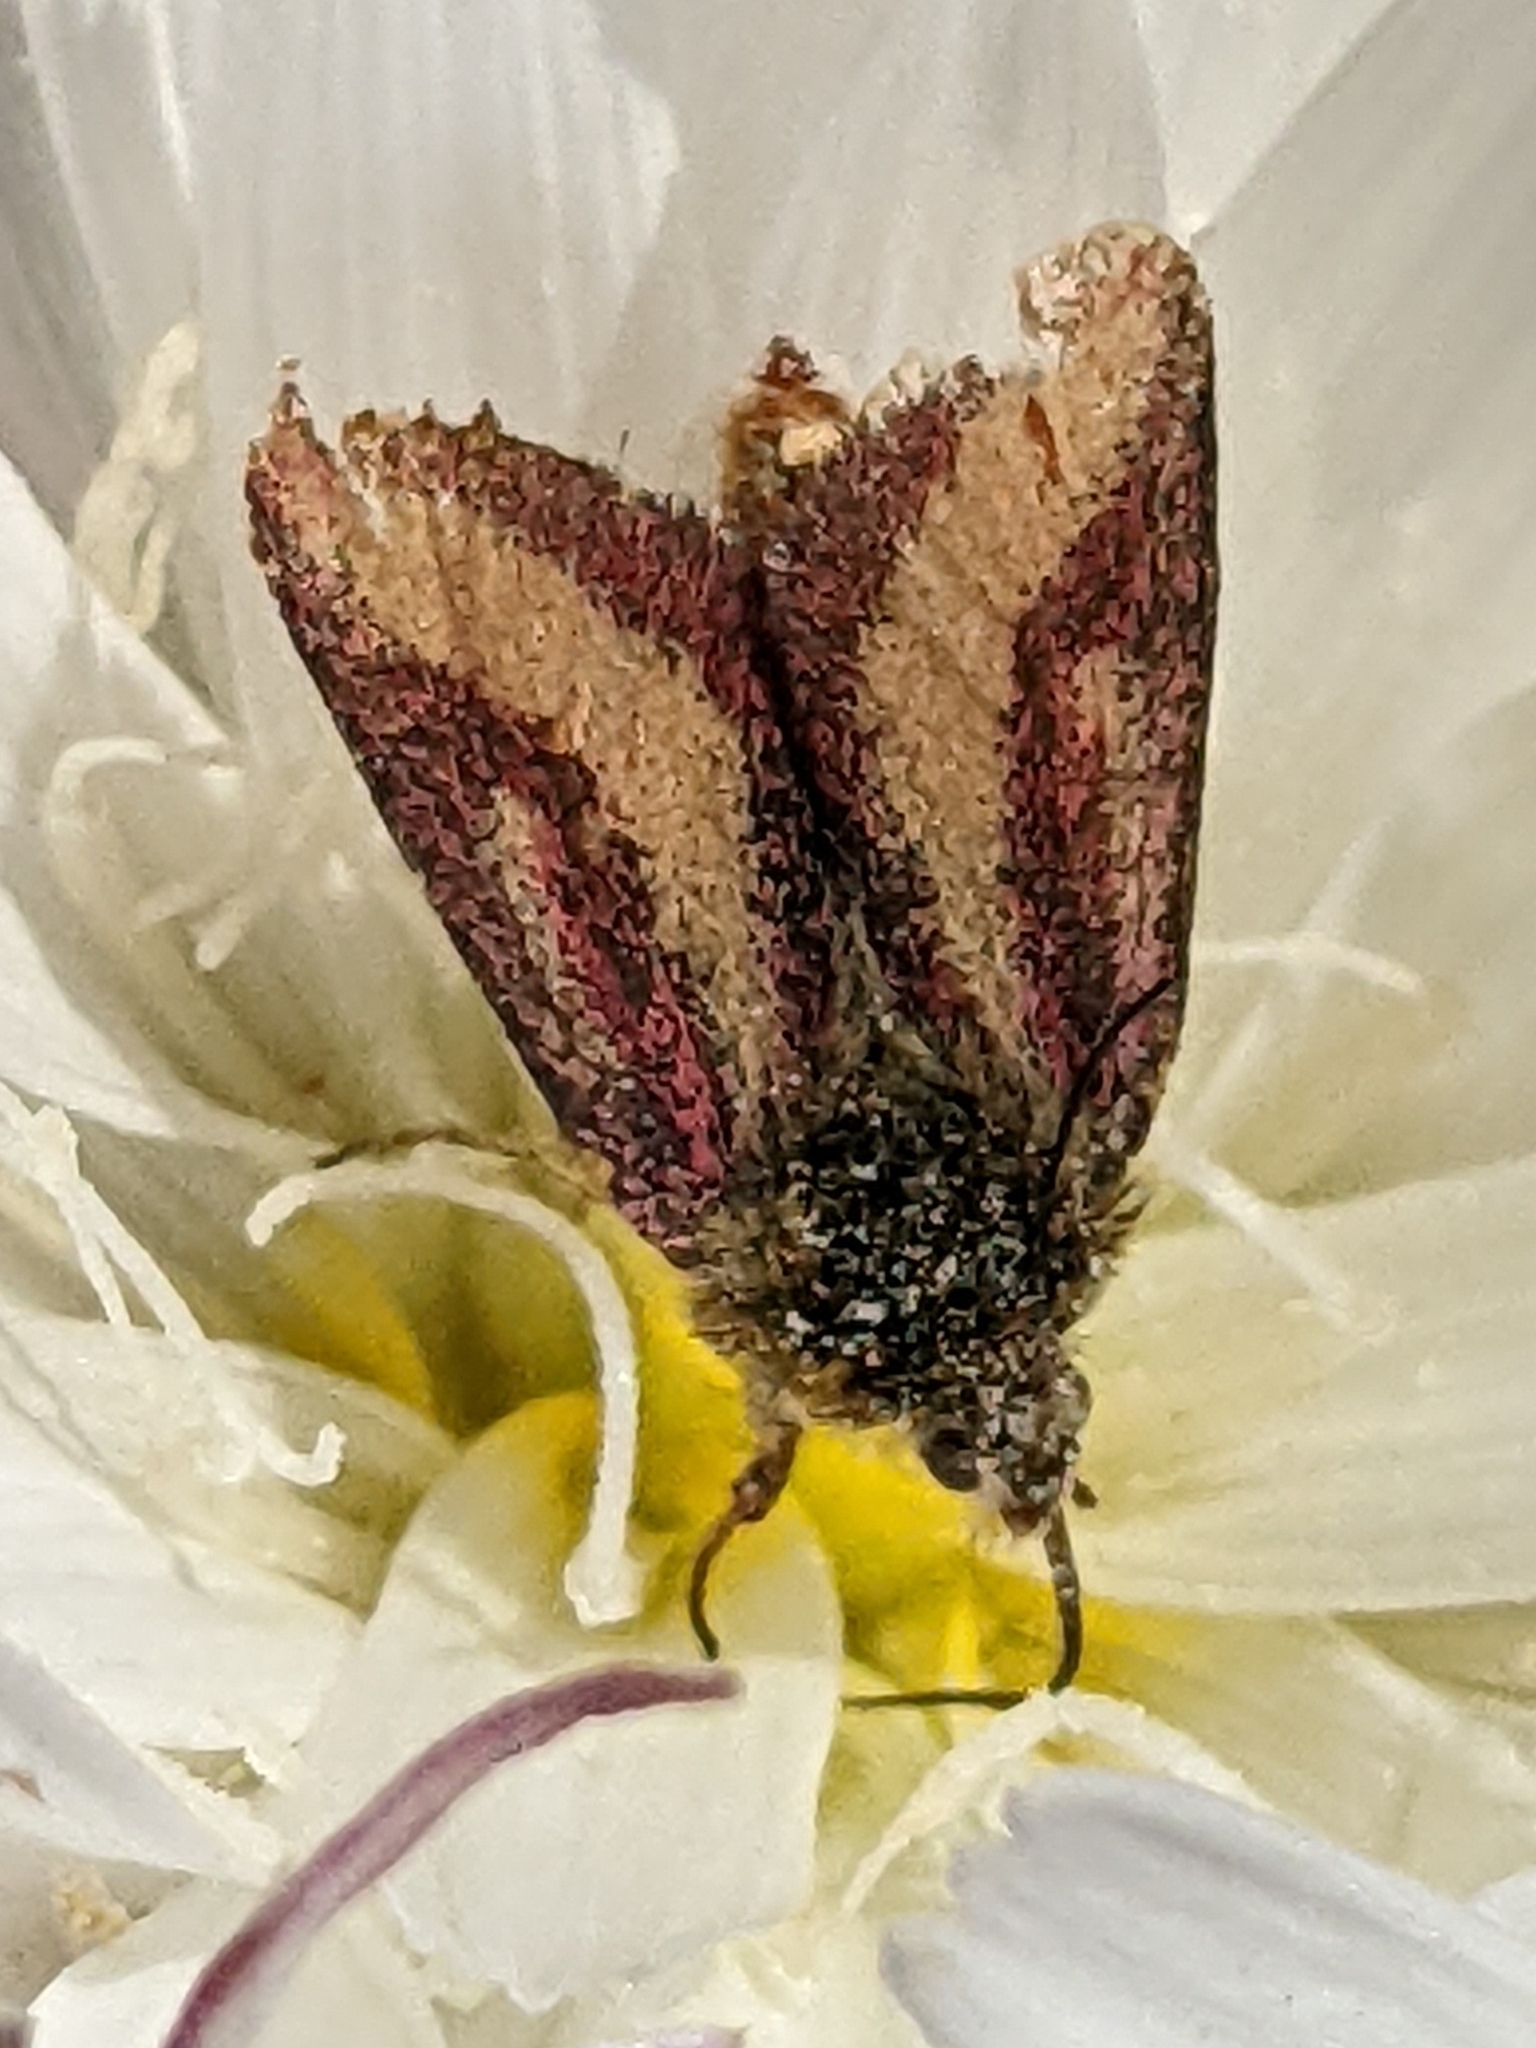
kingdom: Animalia
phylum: Arthropoda
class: Insecta
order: Lepidoptera
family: Noctuidae
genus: Heliolonche
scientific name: Heliolonche carolus
